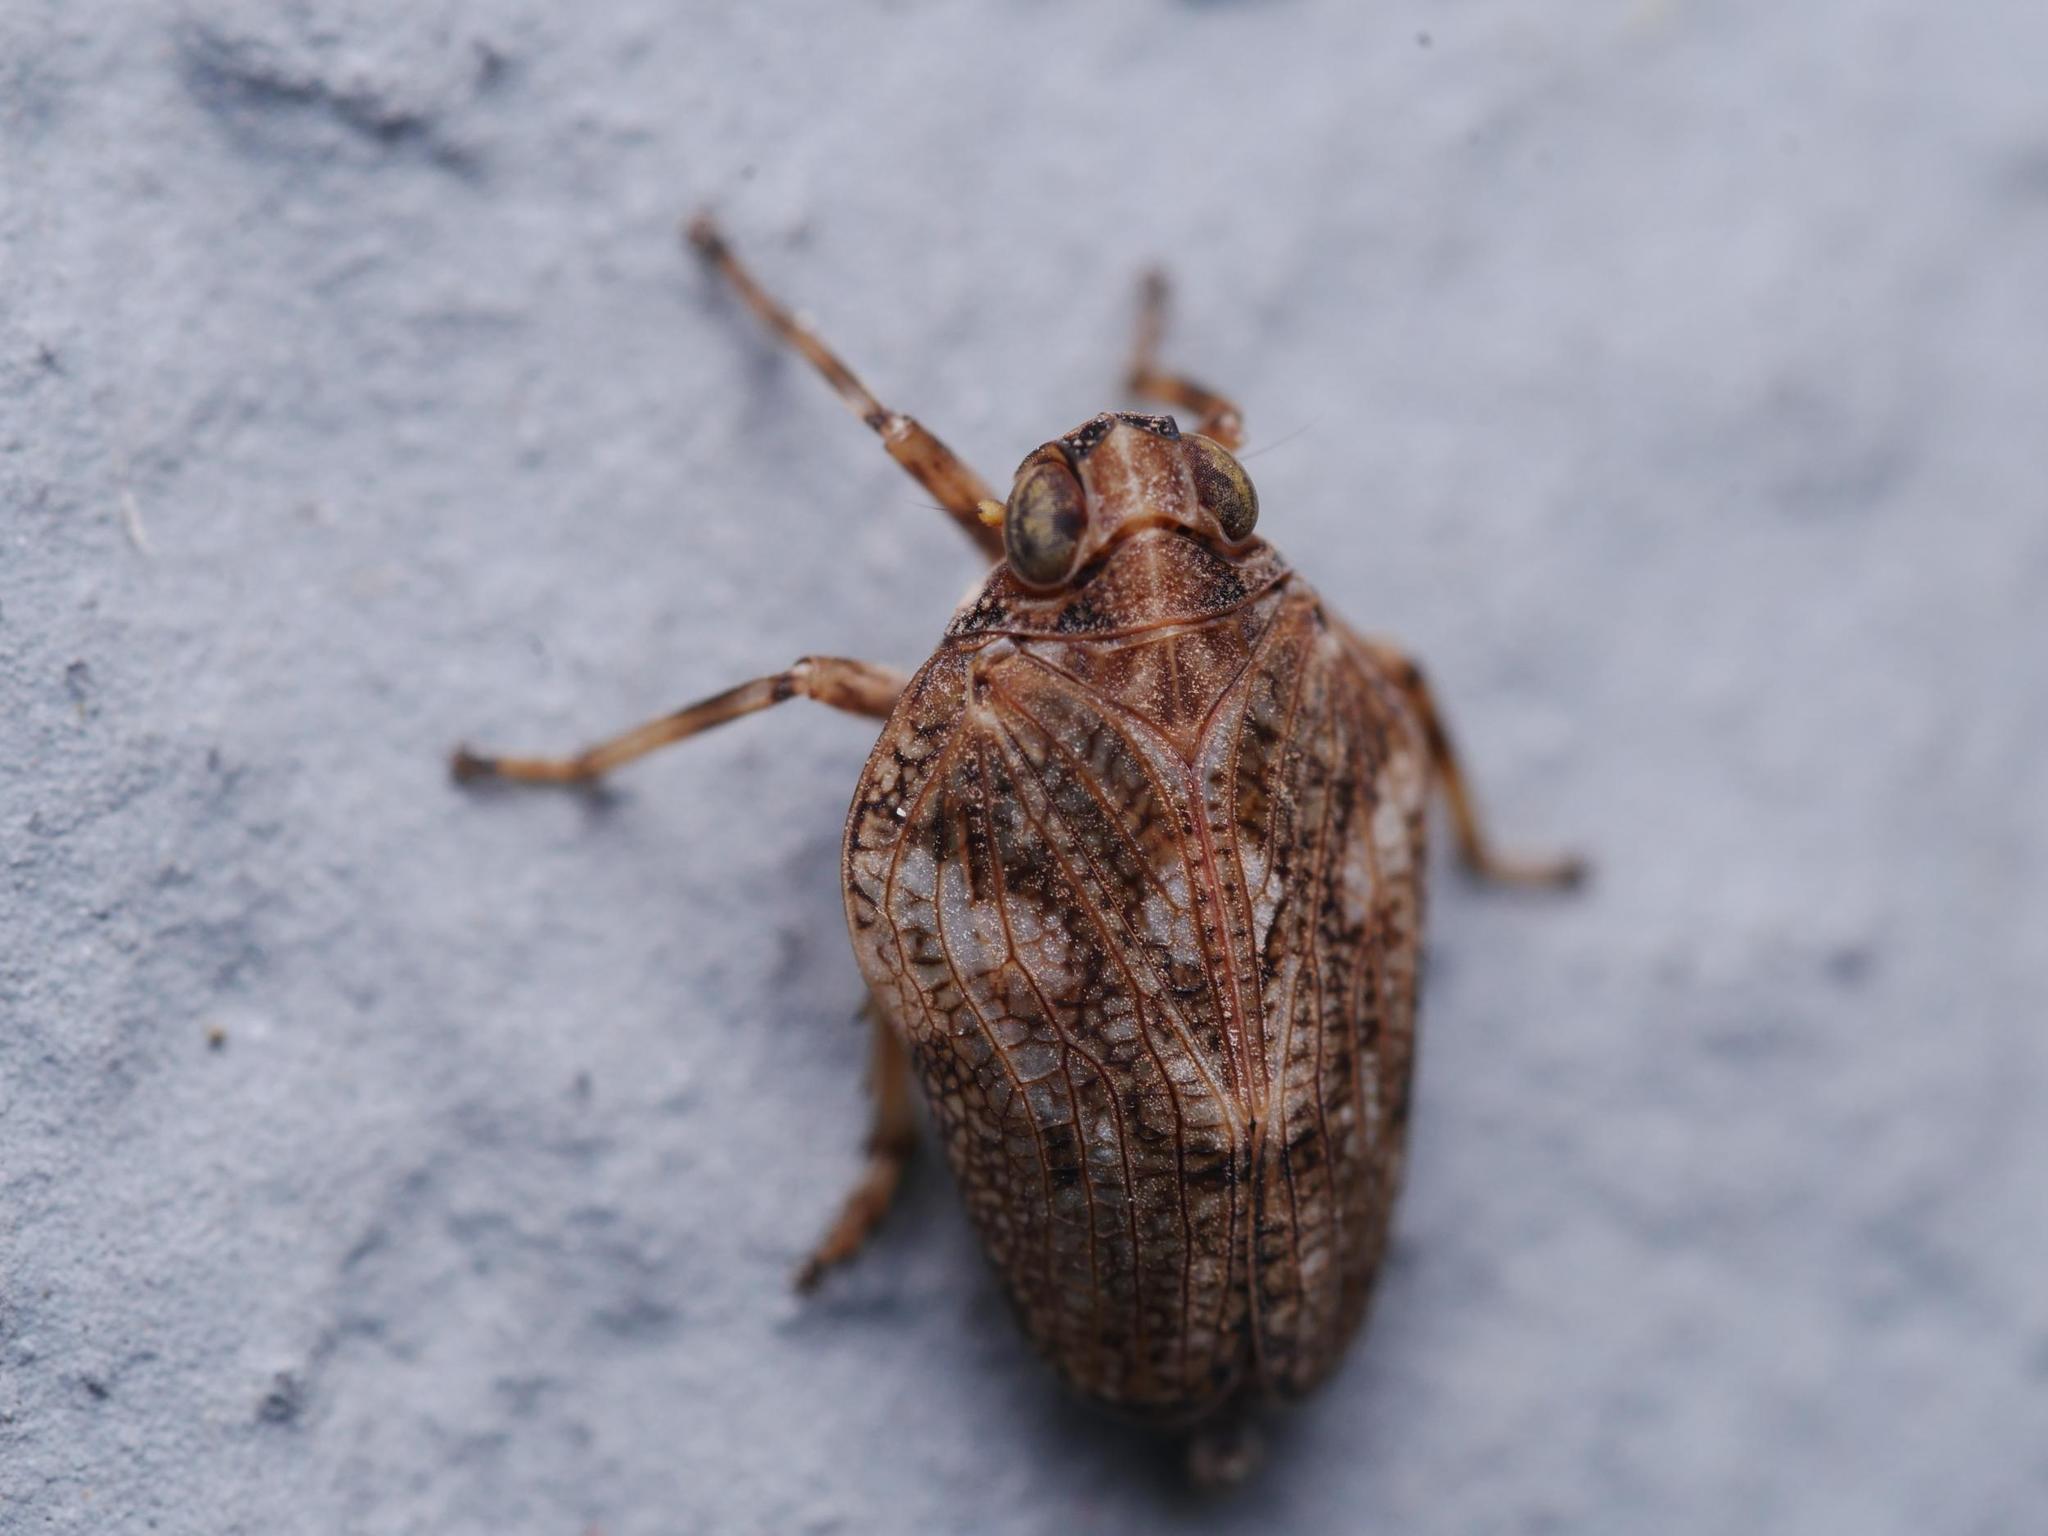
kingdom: Animalia
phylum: Arthropoda
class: Insecta
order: Hemiptera
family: Issidae
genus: Issus
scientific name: Issus coleoptratus
